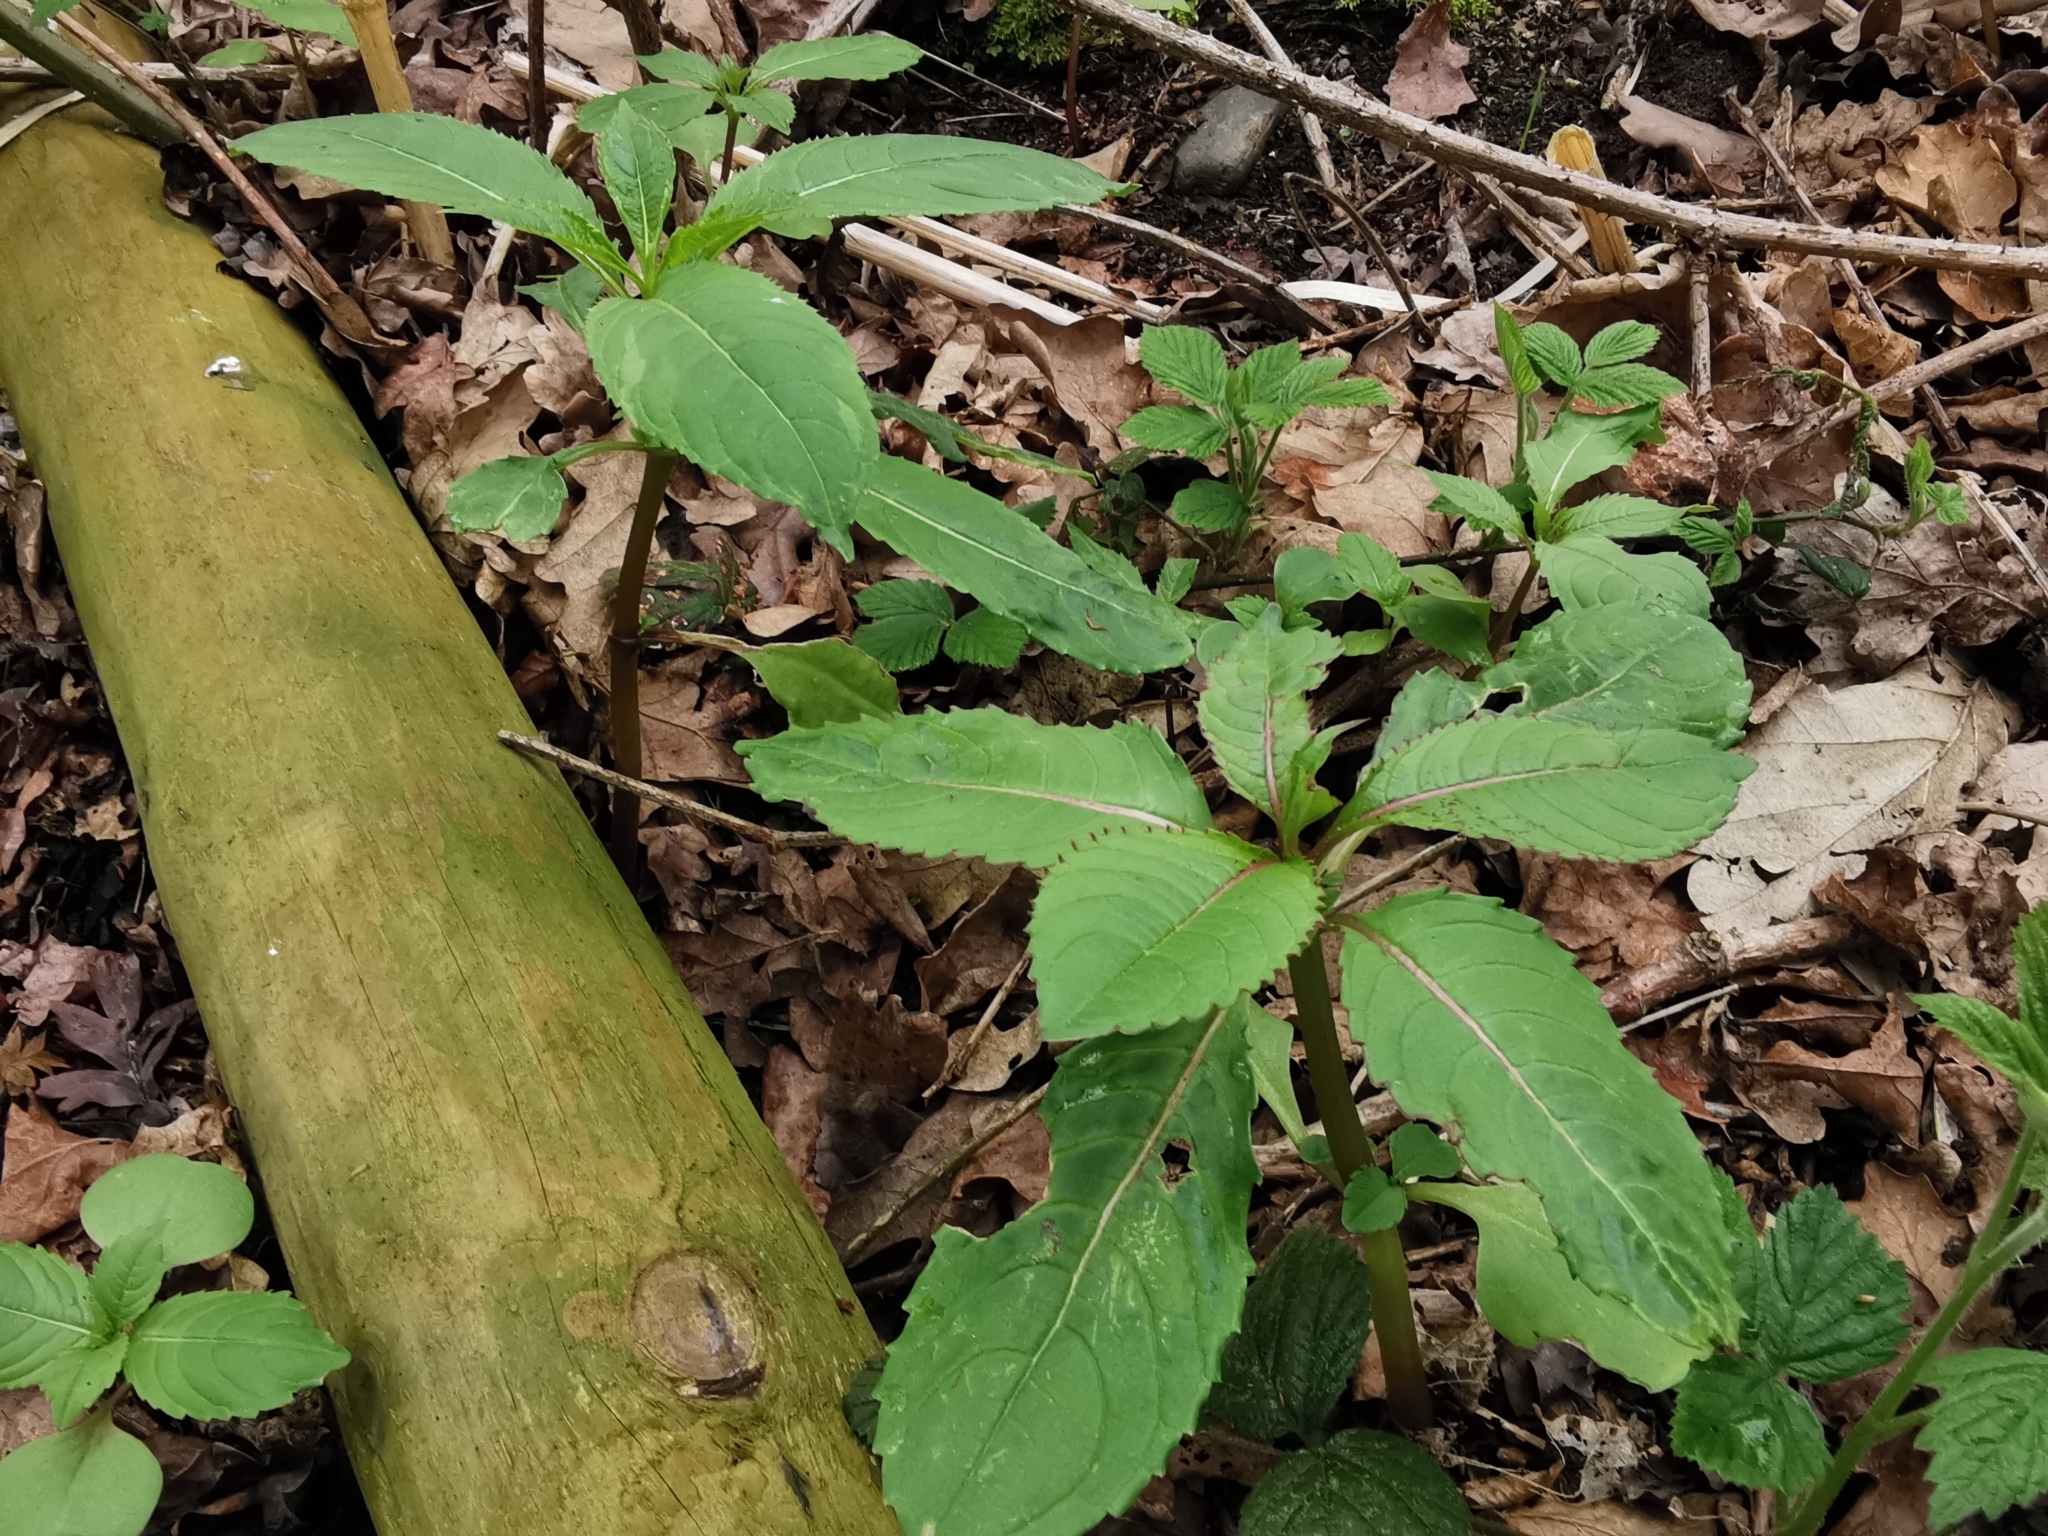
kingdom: Plantae
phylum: Tracheophyta
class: Magnoliopsida
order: Ericales
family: Balsaminaceae
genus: Impatiens
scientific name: Impatiens glandulifera
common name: Himalayan balsam
